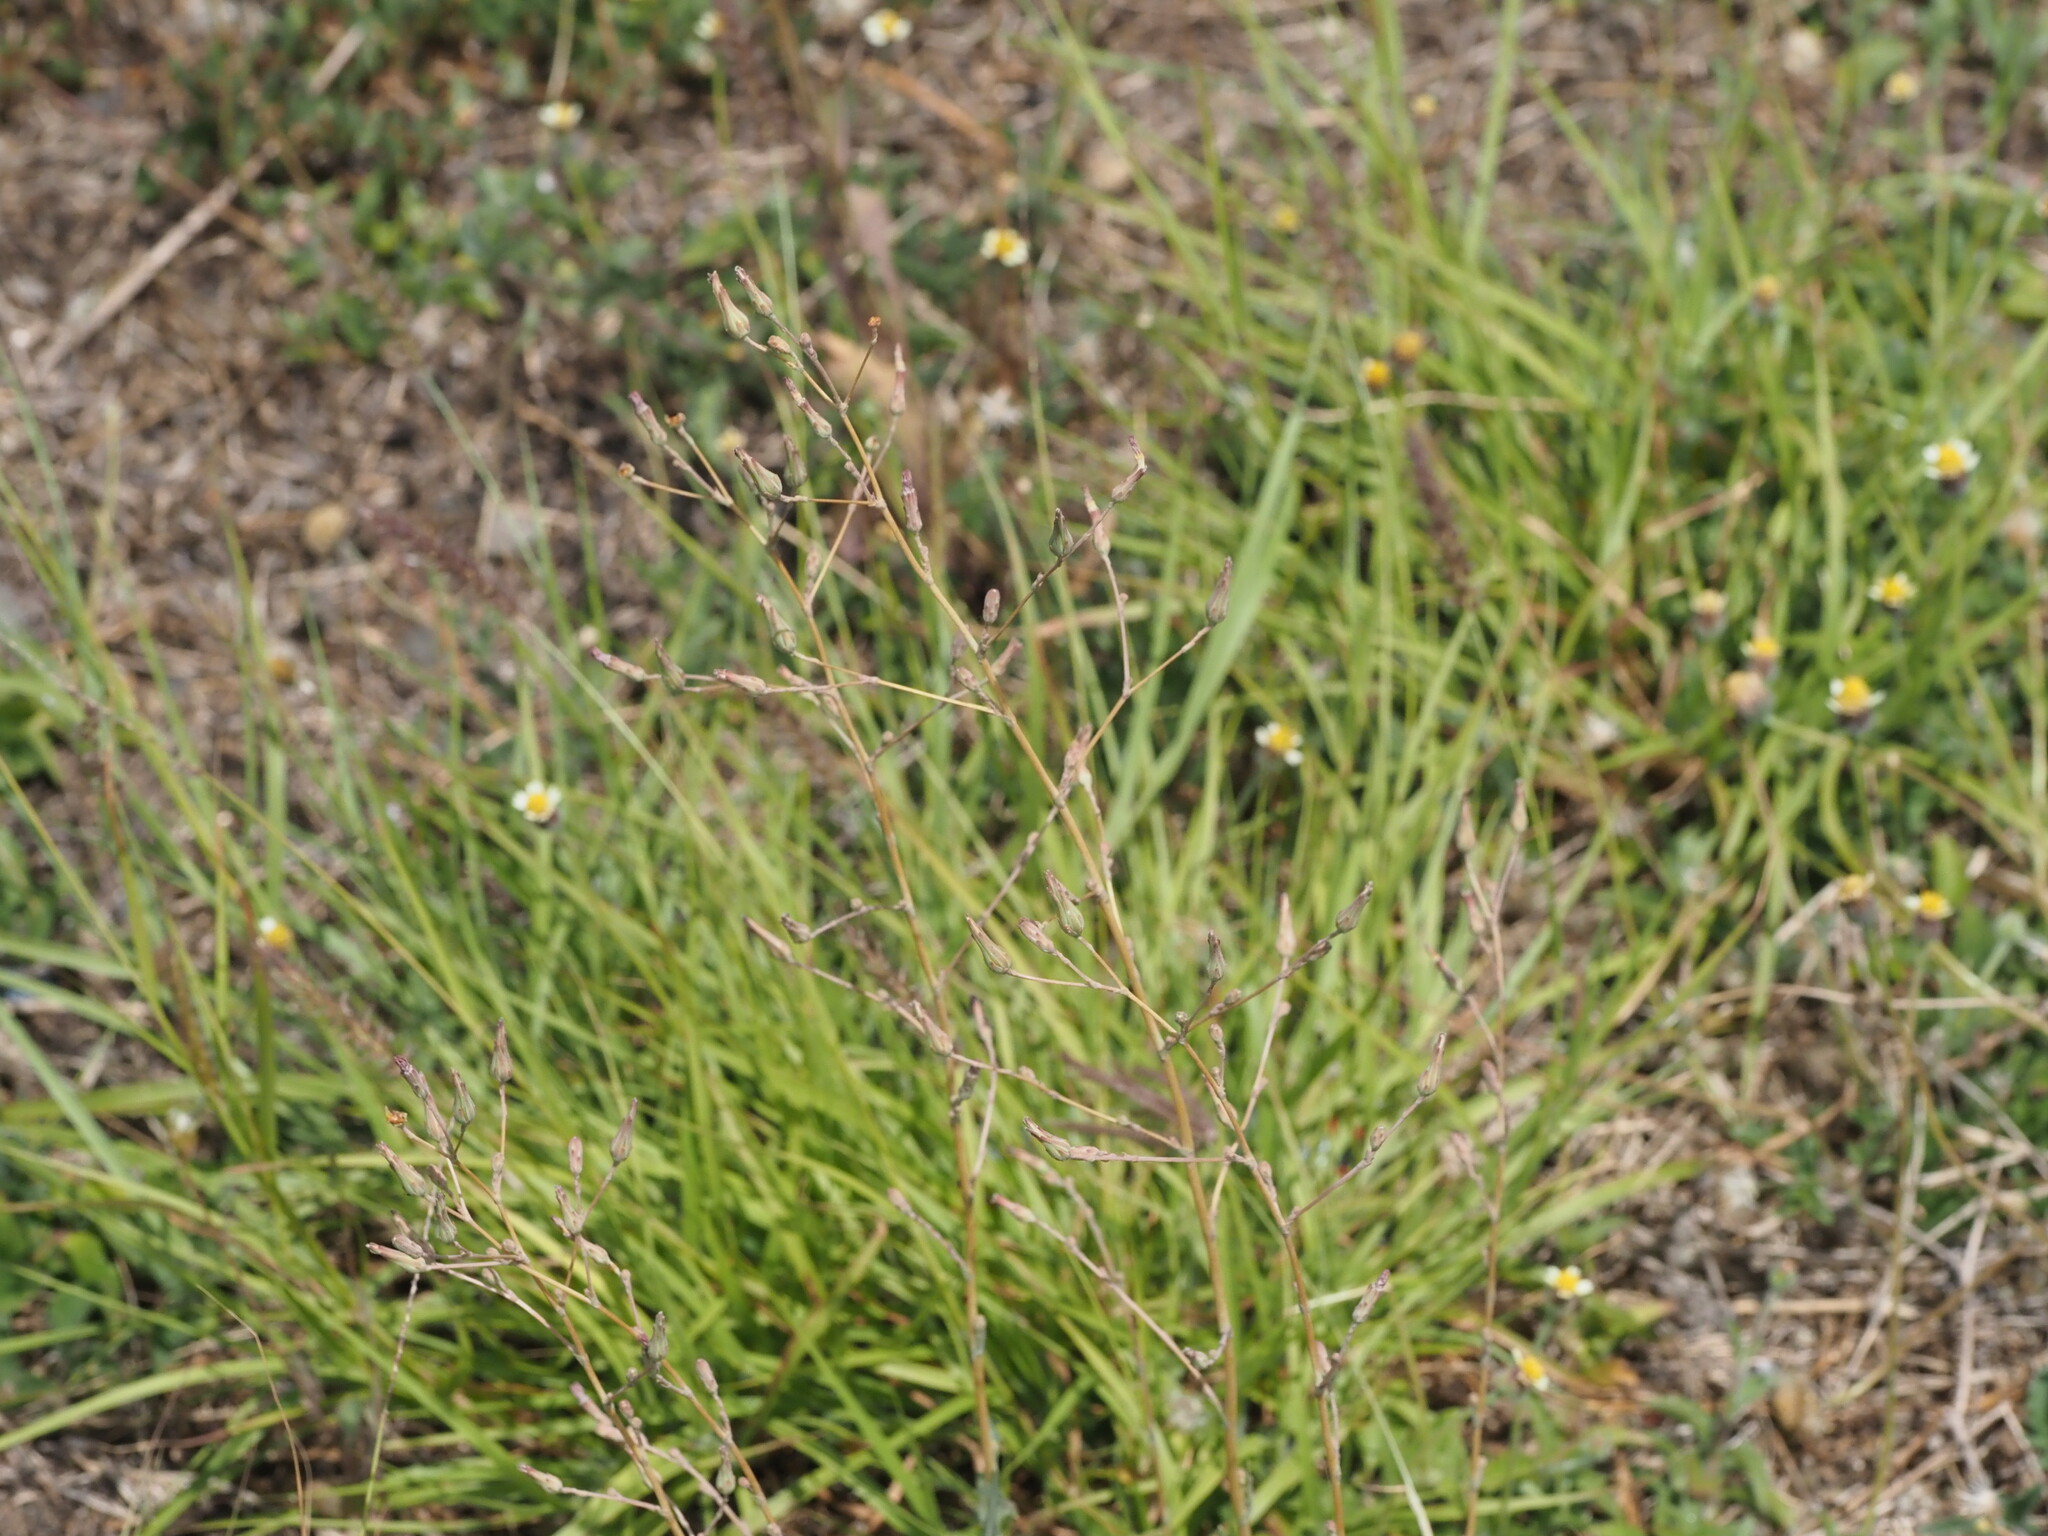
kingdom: Plantae
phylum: Tracheophyta
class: Magnoliopsida
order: Asterales
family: Asteraceae
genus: Lactuca
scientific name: Lactuca serriola
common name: Prickly lettuce
